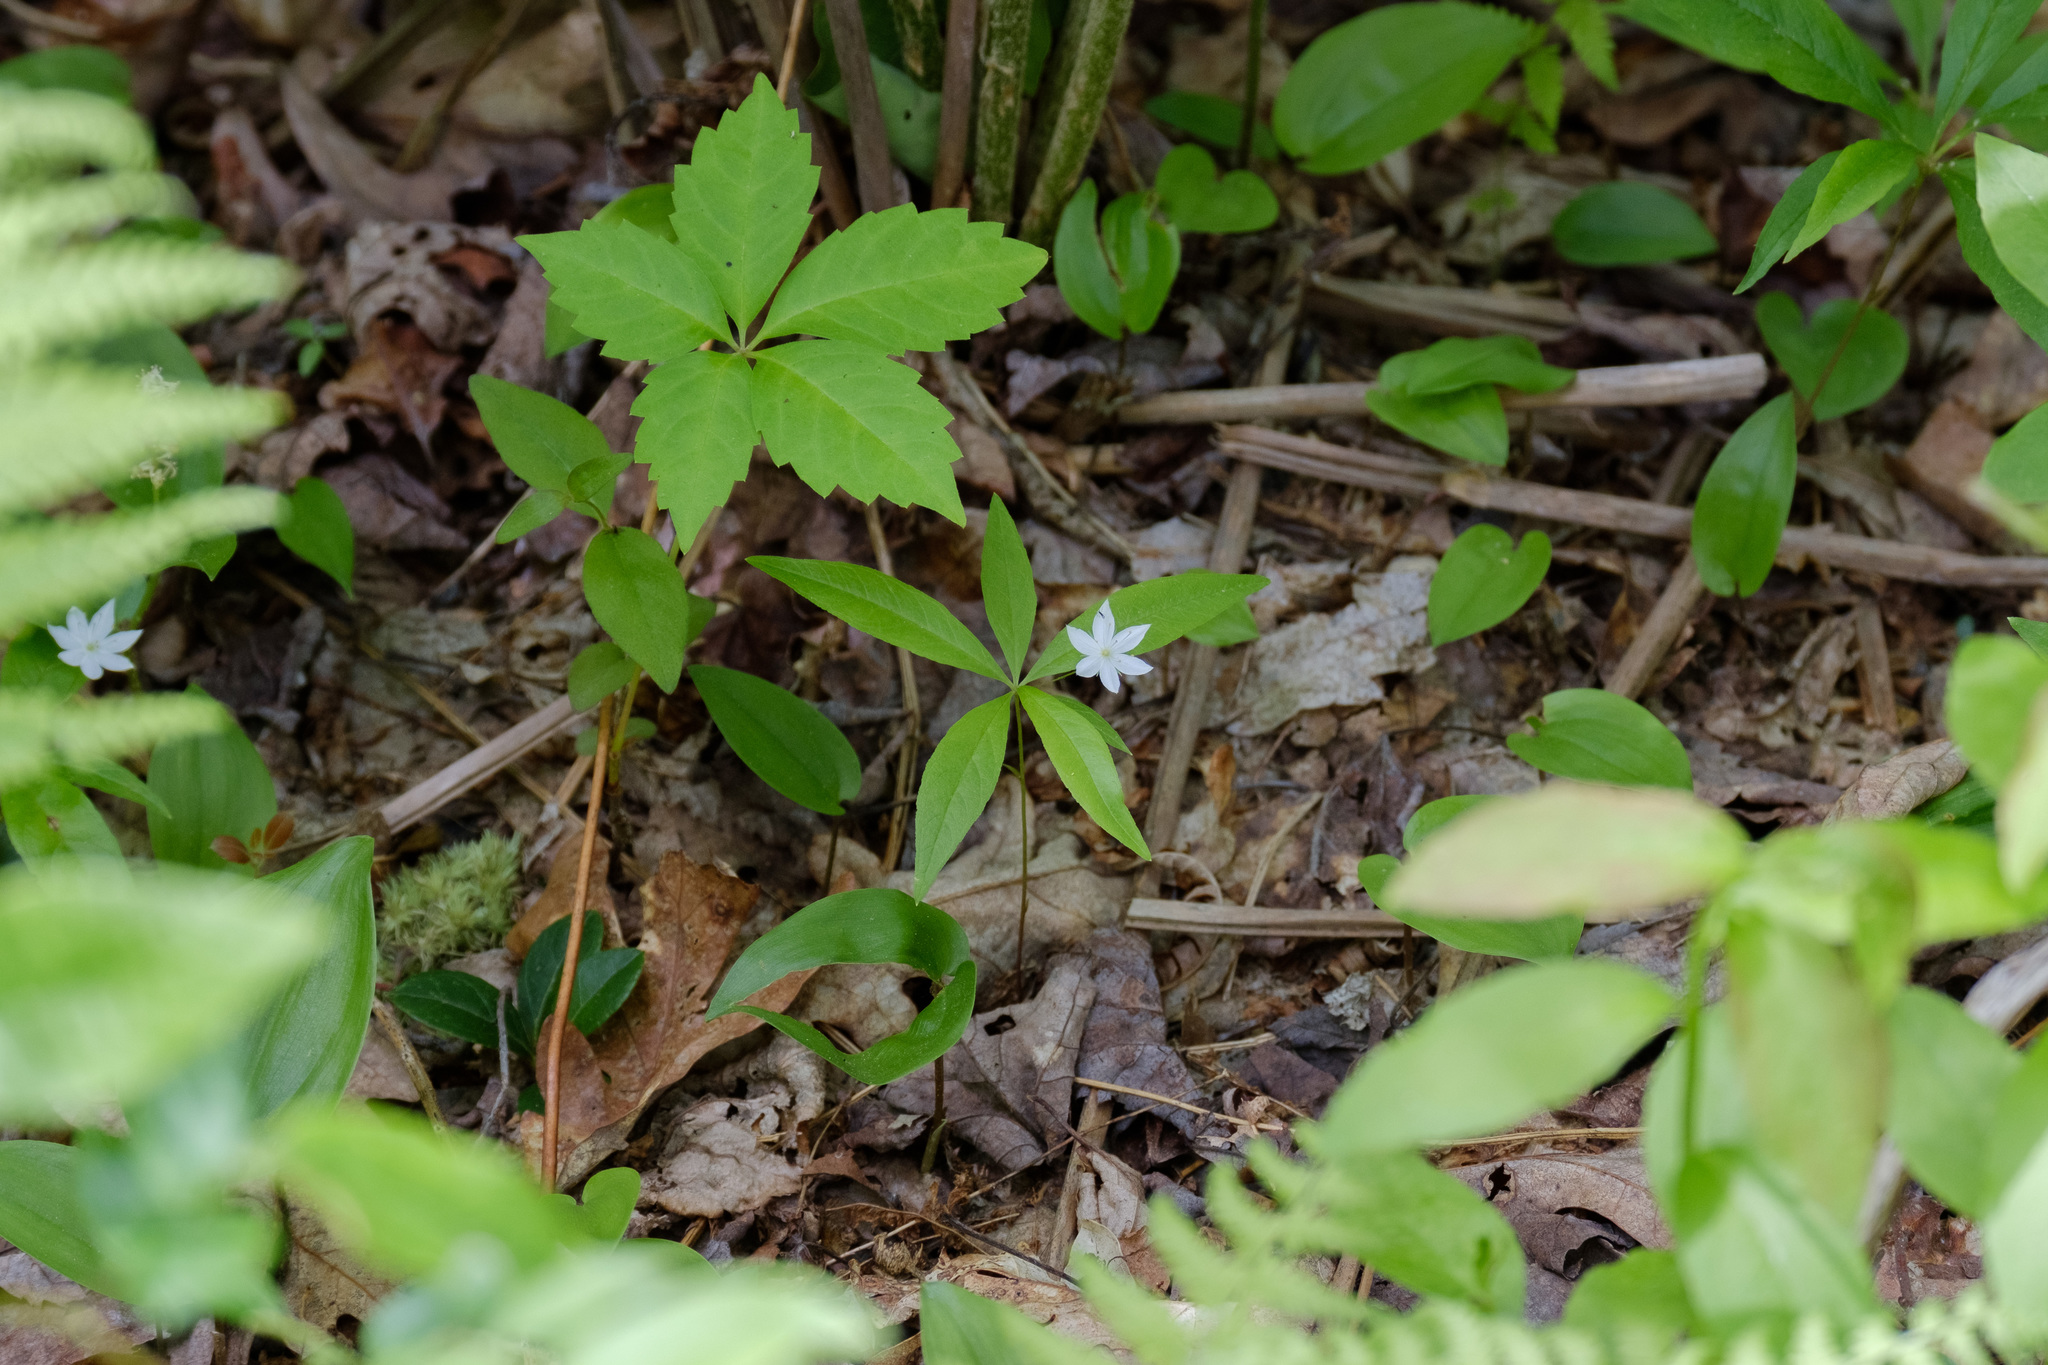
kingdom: Plantae
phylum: Tracheophyta
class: Magnoliopsida
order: Ericales
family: Primulaceae
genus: Lysimachia
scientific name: Lysimachia borealis
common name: American starflower
